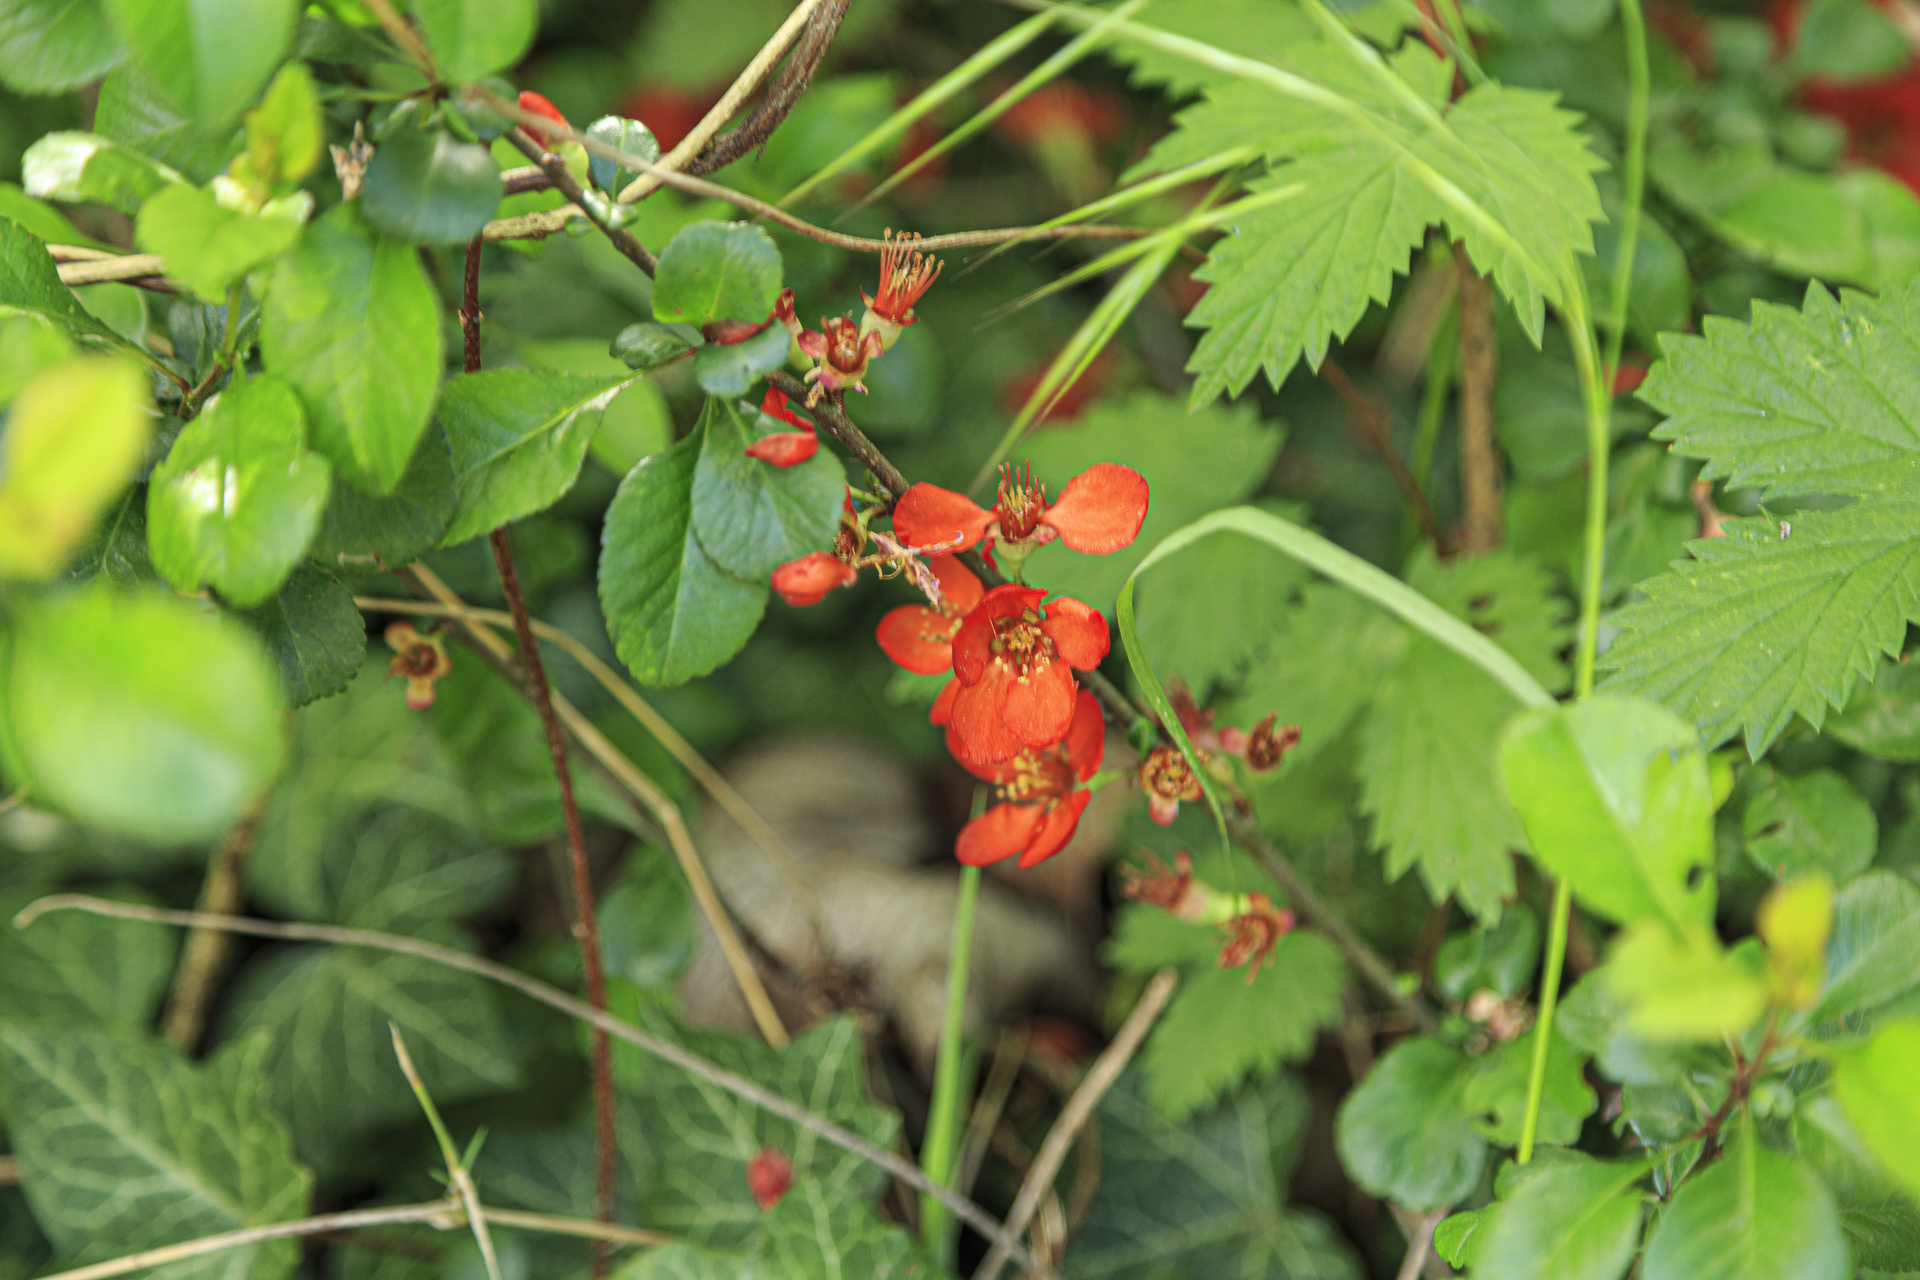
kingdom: Plantae
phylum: Tracheophyta
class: Magnoliopsida
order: Rosales
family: Rosaceae
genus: Chaenomeles
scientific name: Chaenomeles japonica
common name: Japanese quince
